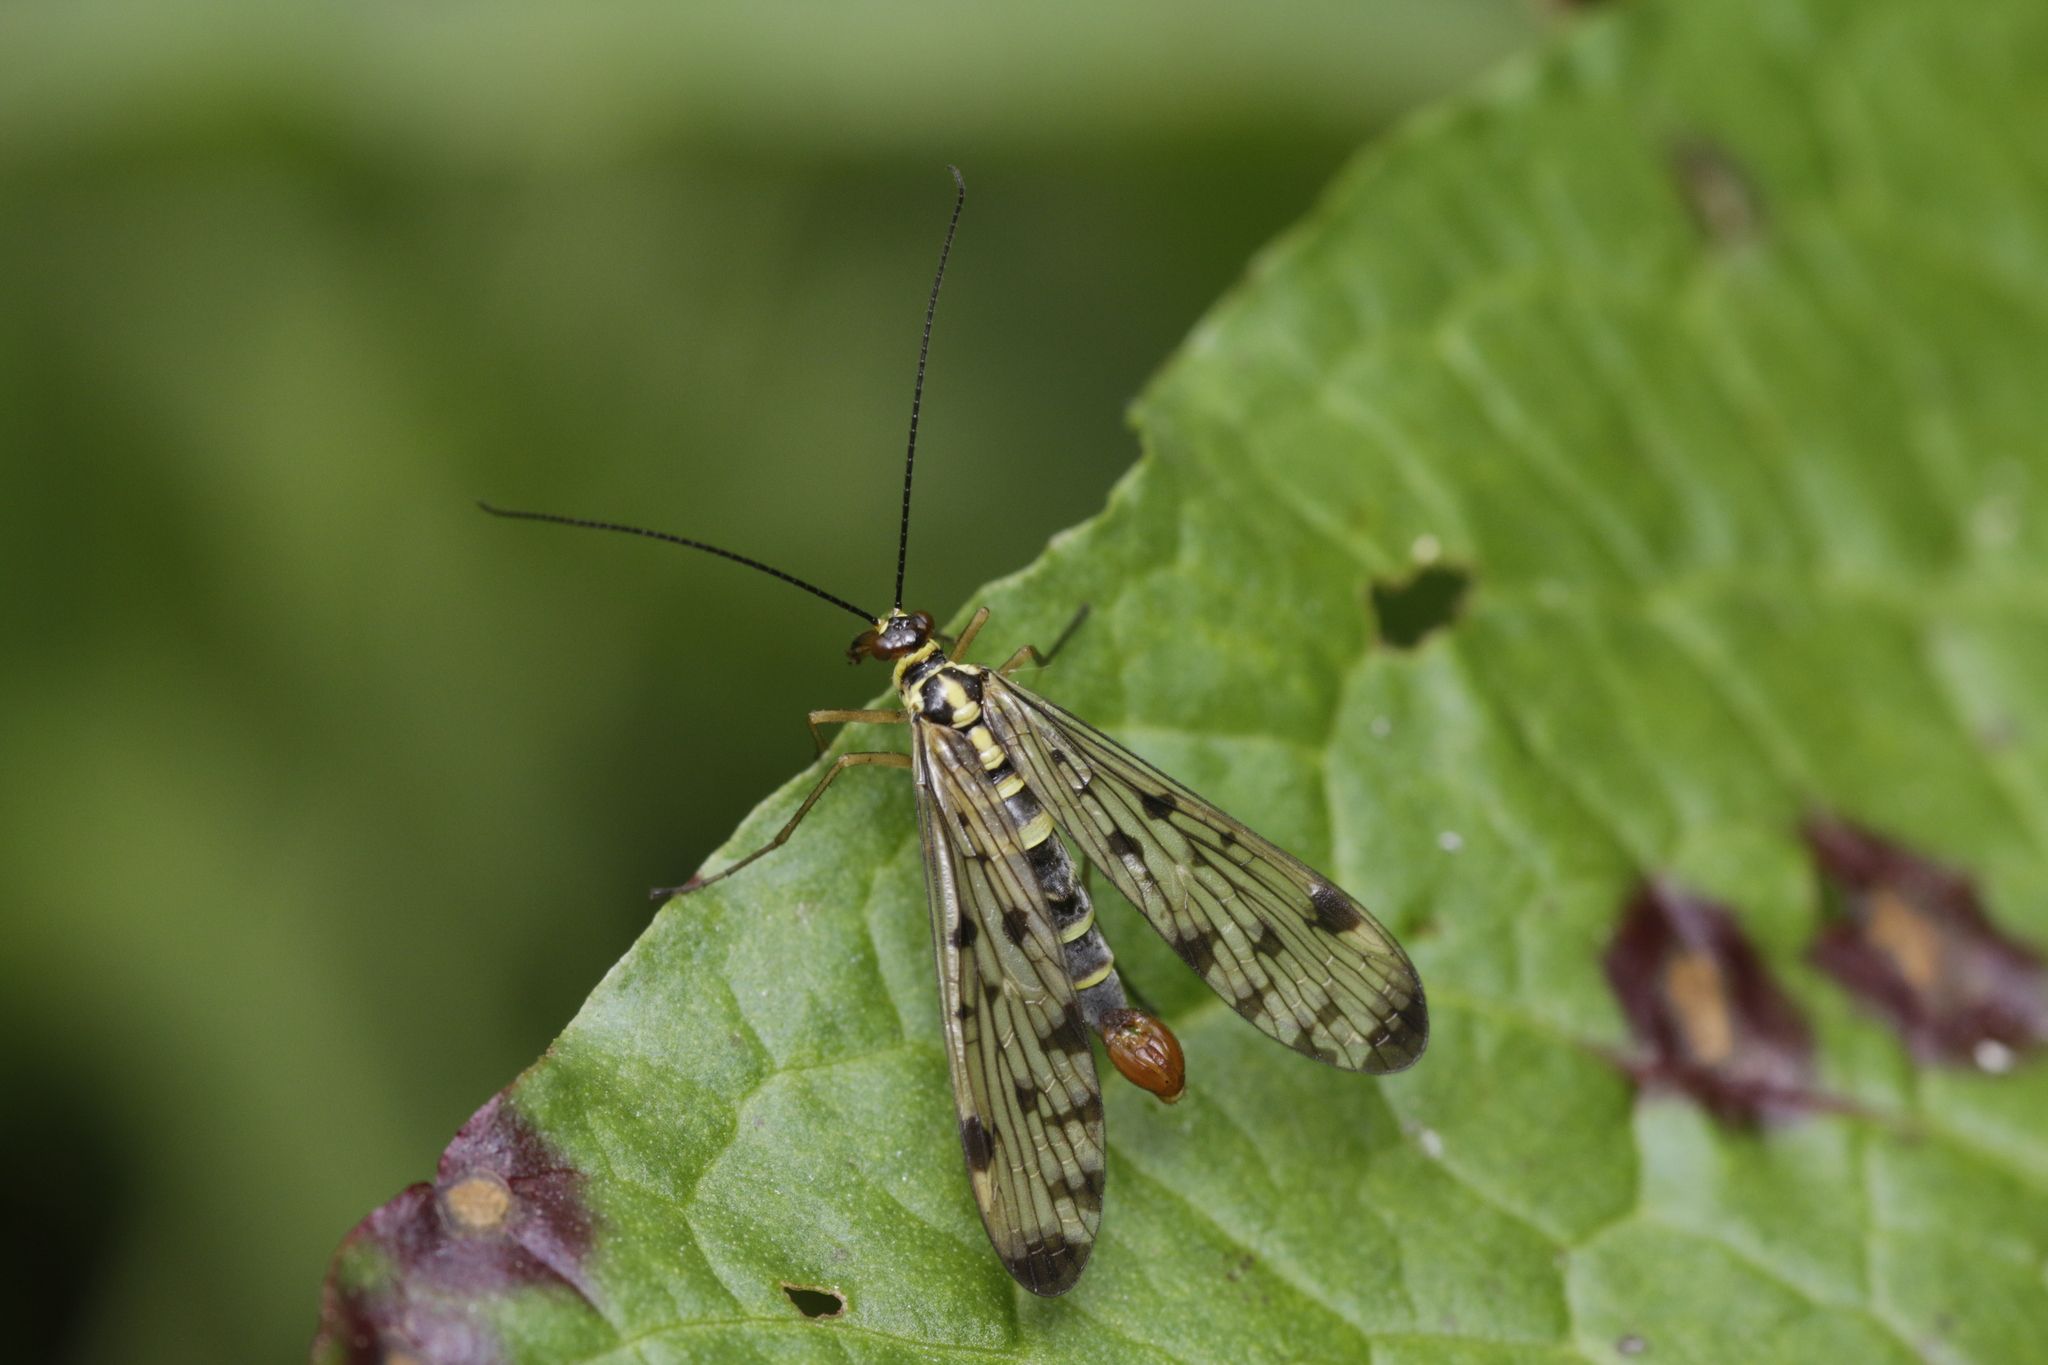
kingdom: Animalia
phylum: Arthropoda
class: Insecta
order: Mecoptera
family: Panorpidae
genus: Panorpa
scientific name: Panorpa germanica
